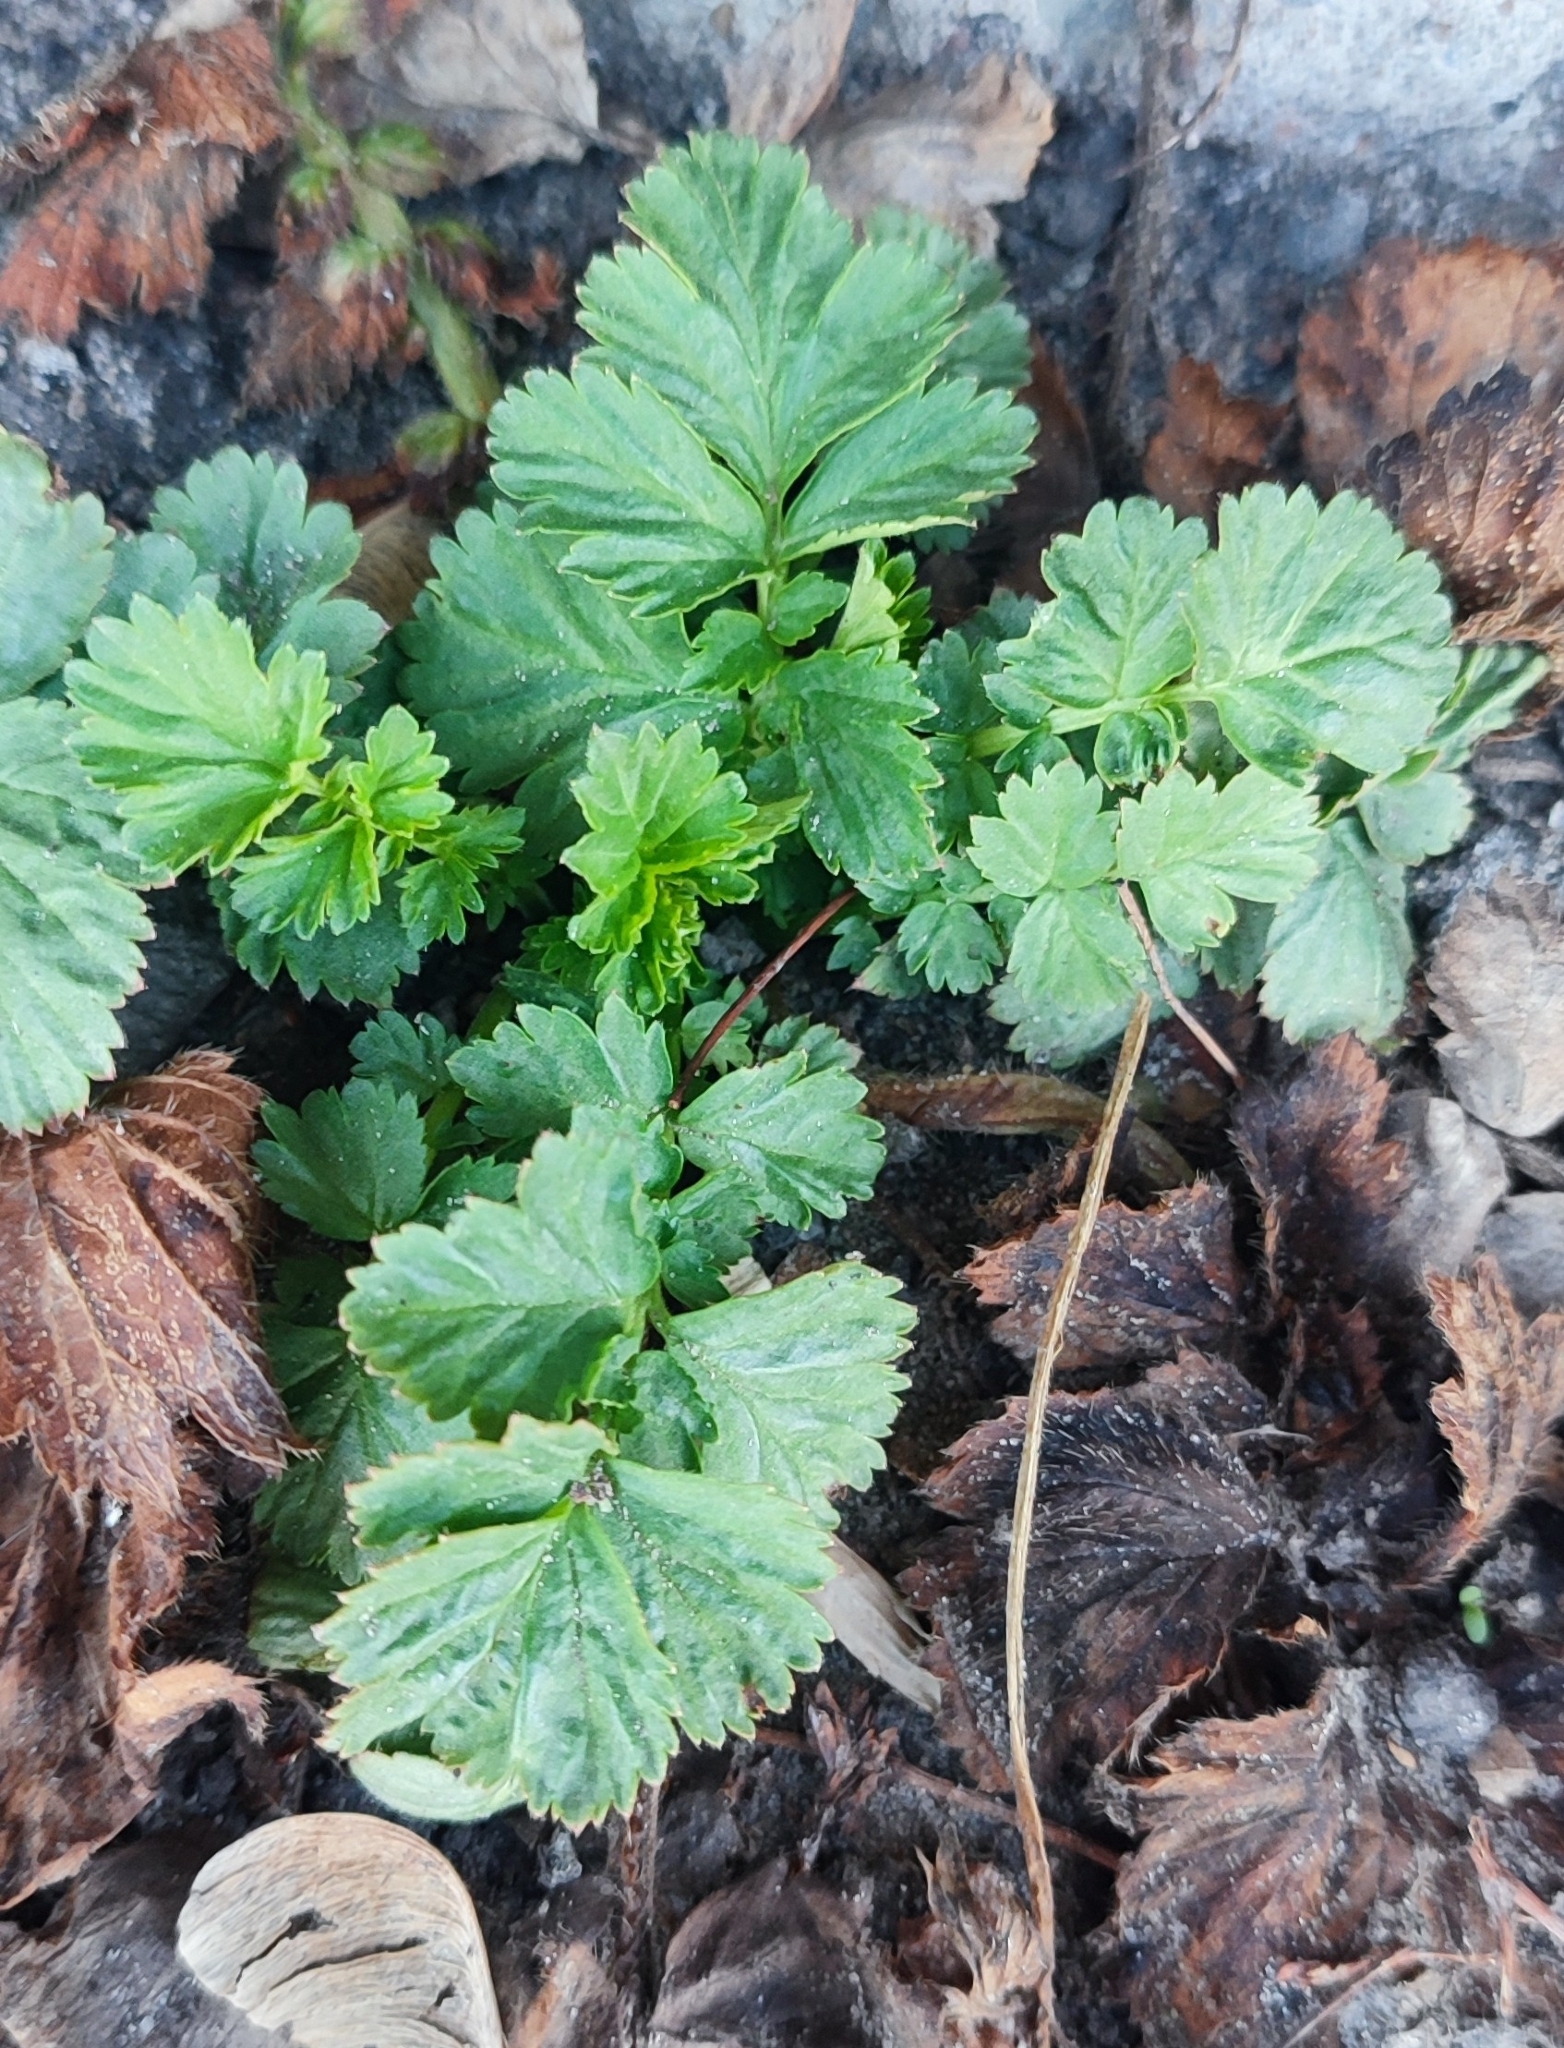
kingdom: Plantae
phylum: Tracheophyta
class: Magnoliopsida
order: Rosales
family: Rosaceae
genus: Geum
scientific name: Geum aleppicum
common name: Yellow avens
